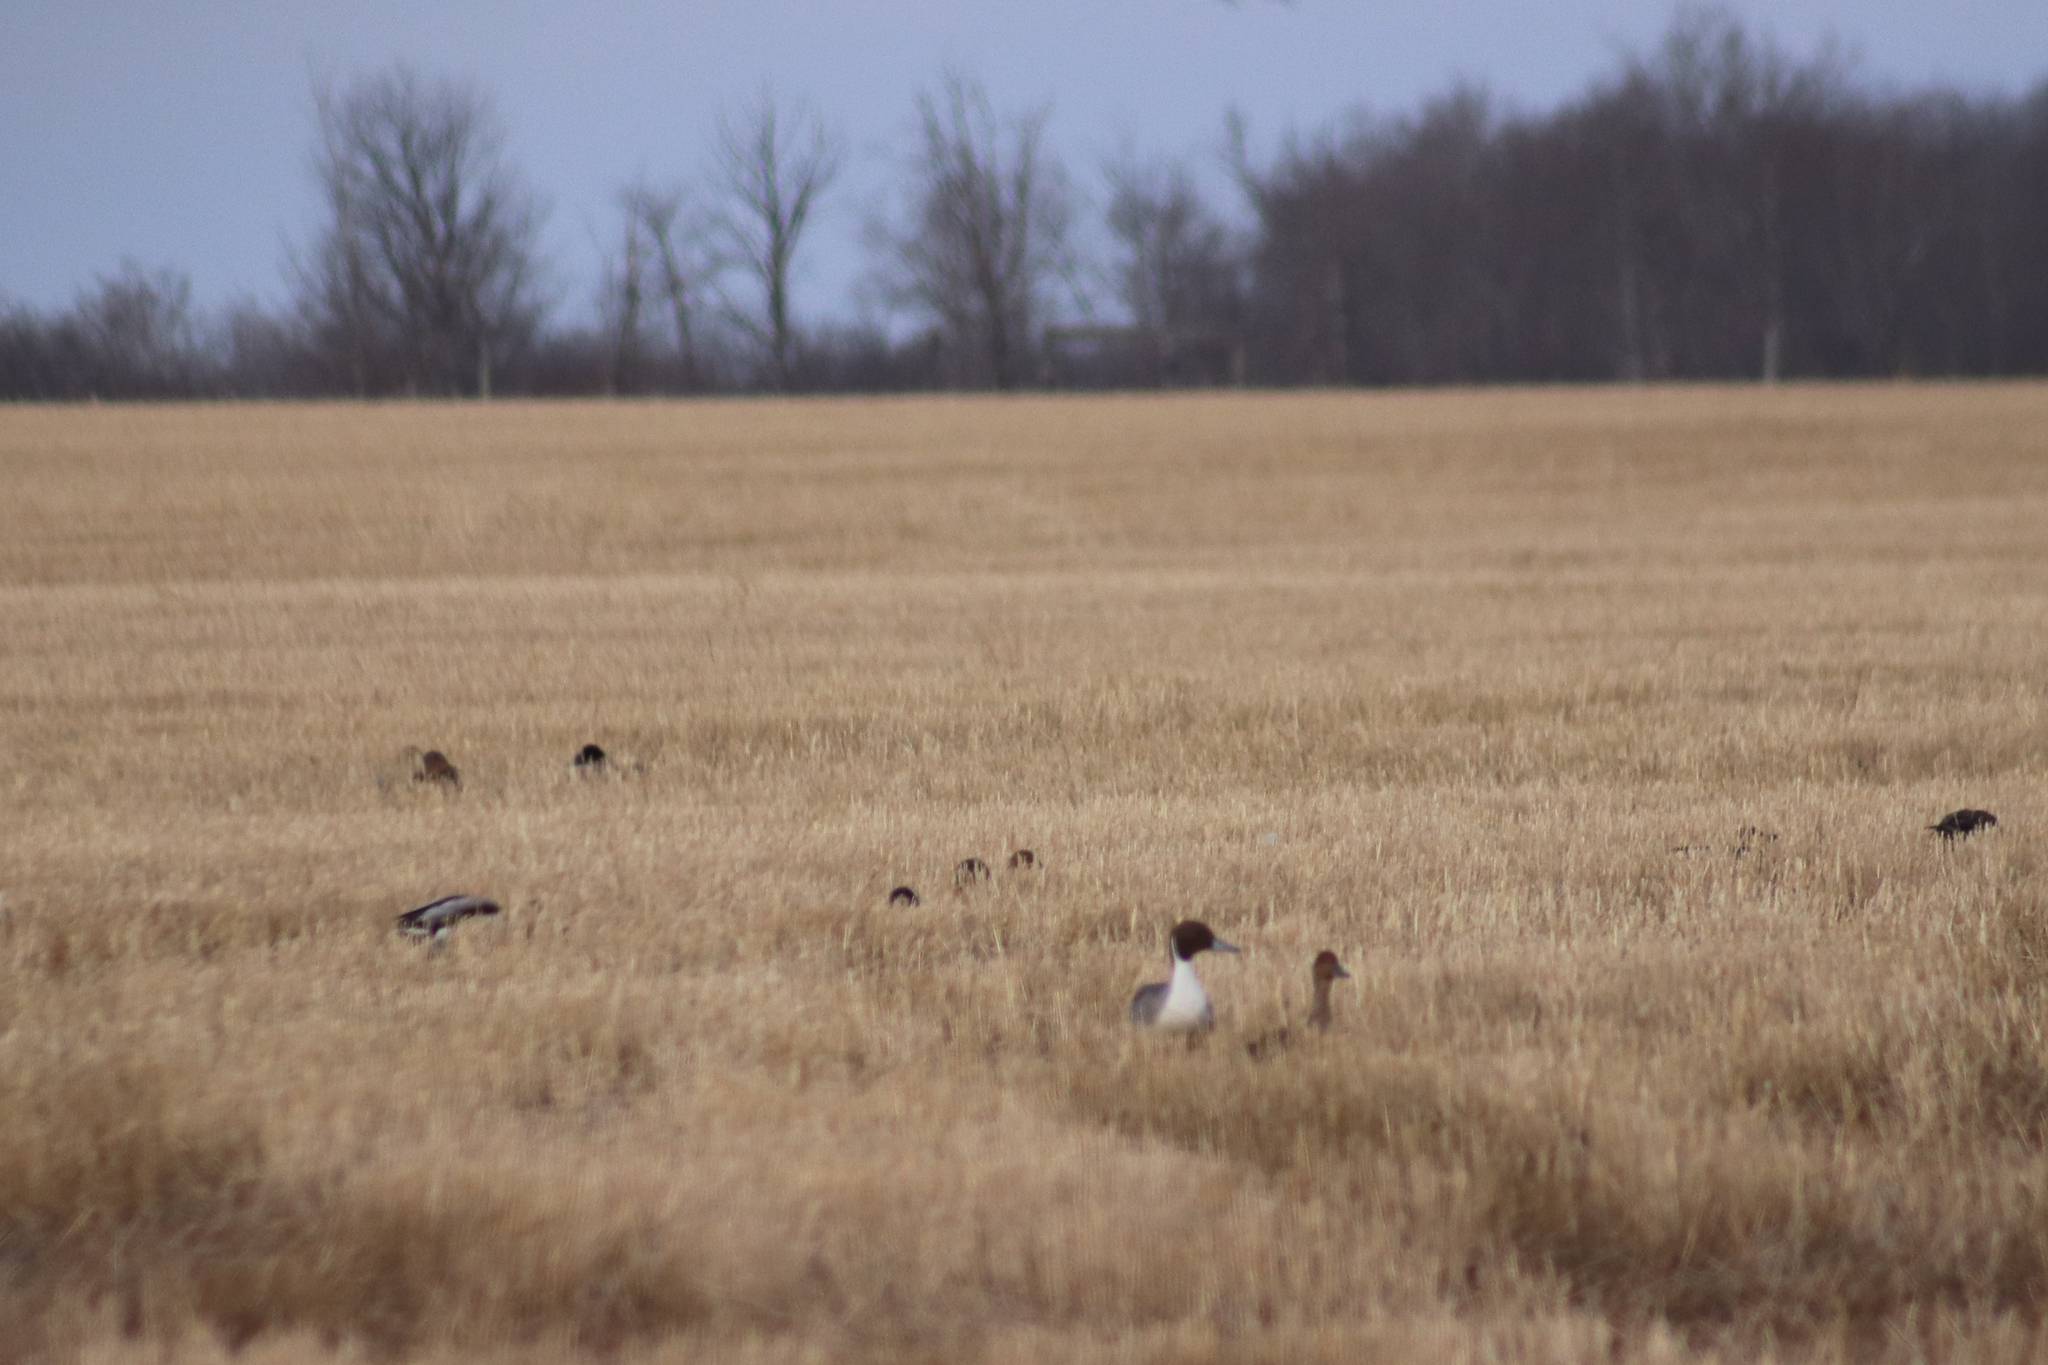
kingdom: Animalia
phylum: Chordata
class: Aves
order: Anseriformes
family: Anatidae
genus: Anas
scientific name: Anas acuta
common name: Northern pintail
